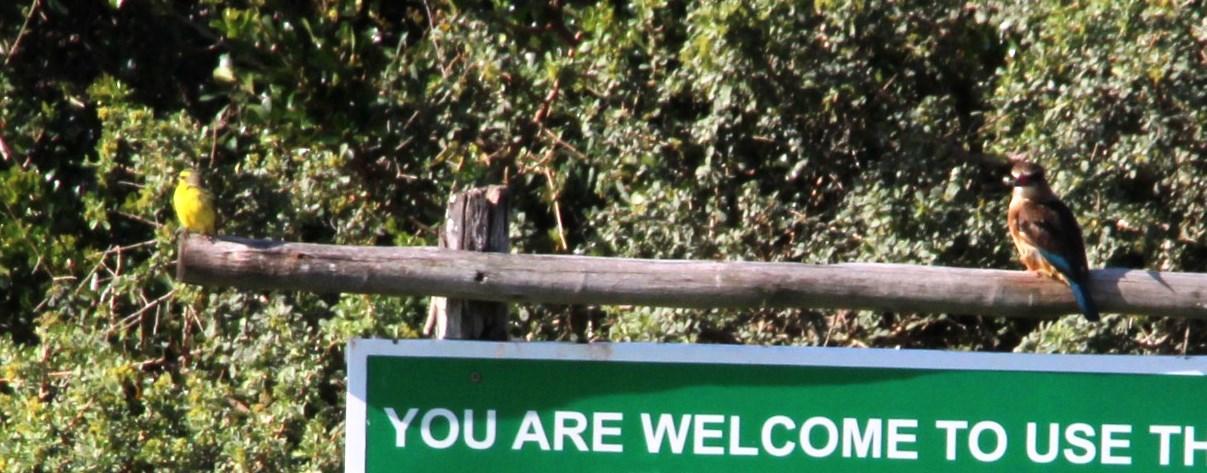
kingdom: Animalia
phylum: Chordata
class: Aves
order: Coraciiformes
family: Alcedinidae
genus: Halcyon
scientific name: Halcyon albiventris
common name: Brown-hooded kingfisher
